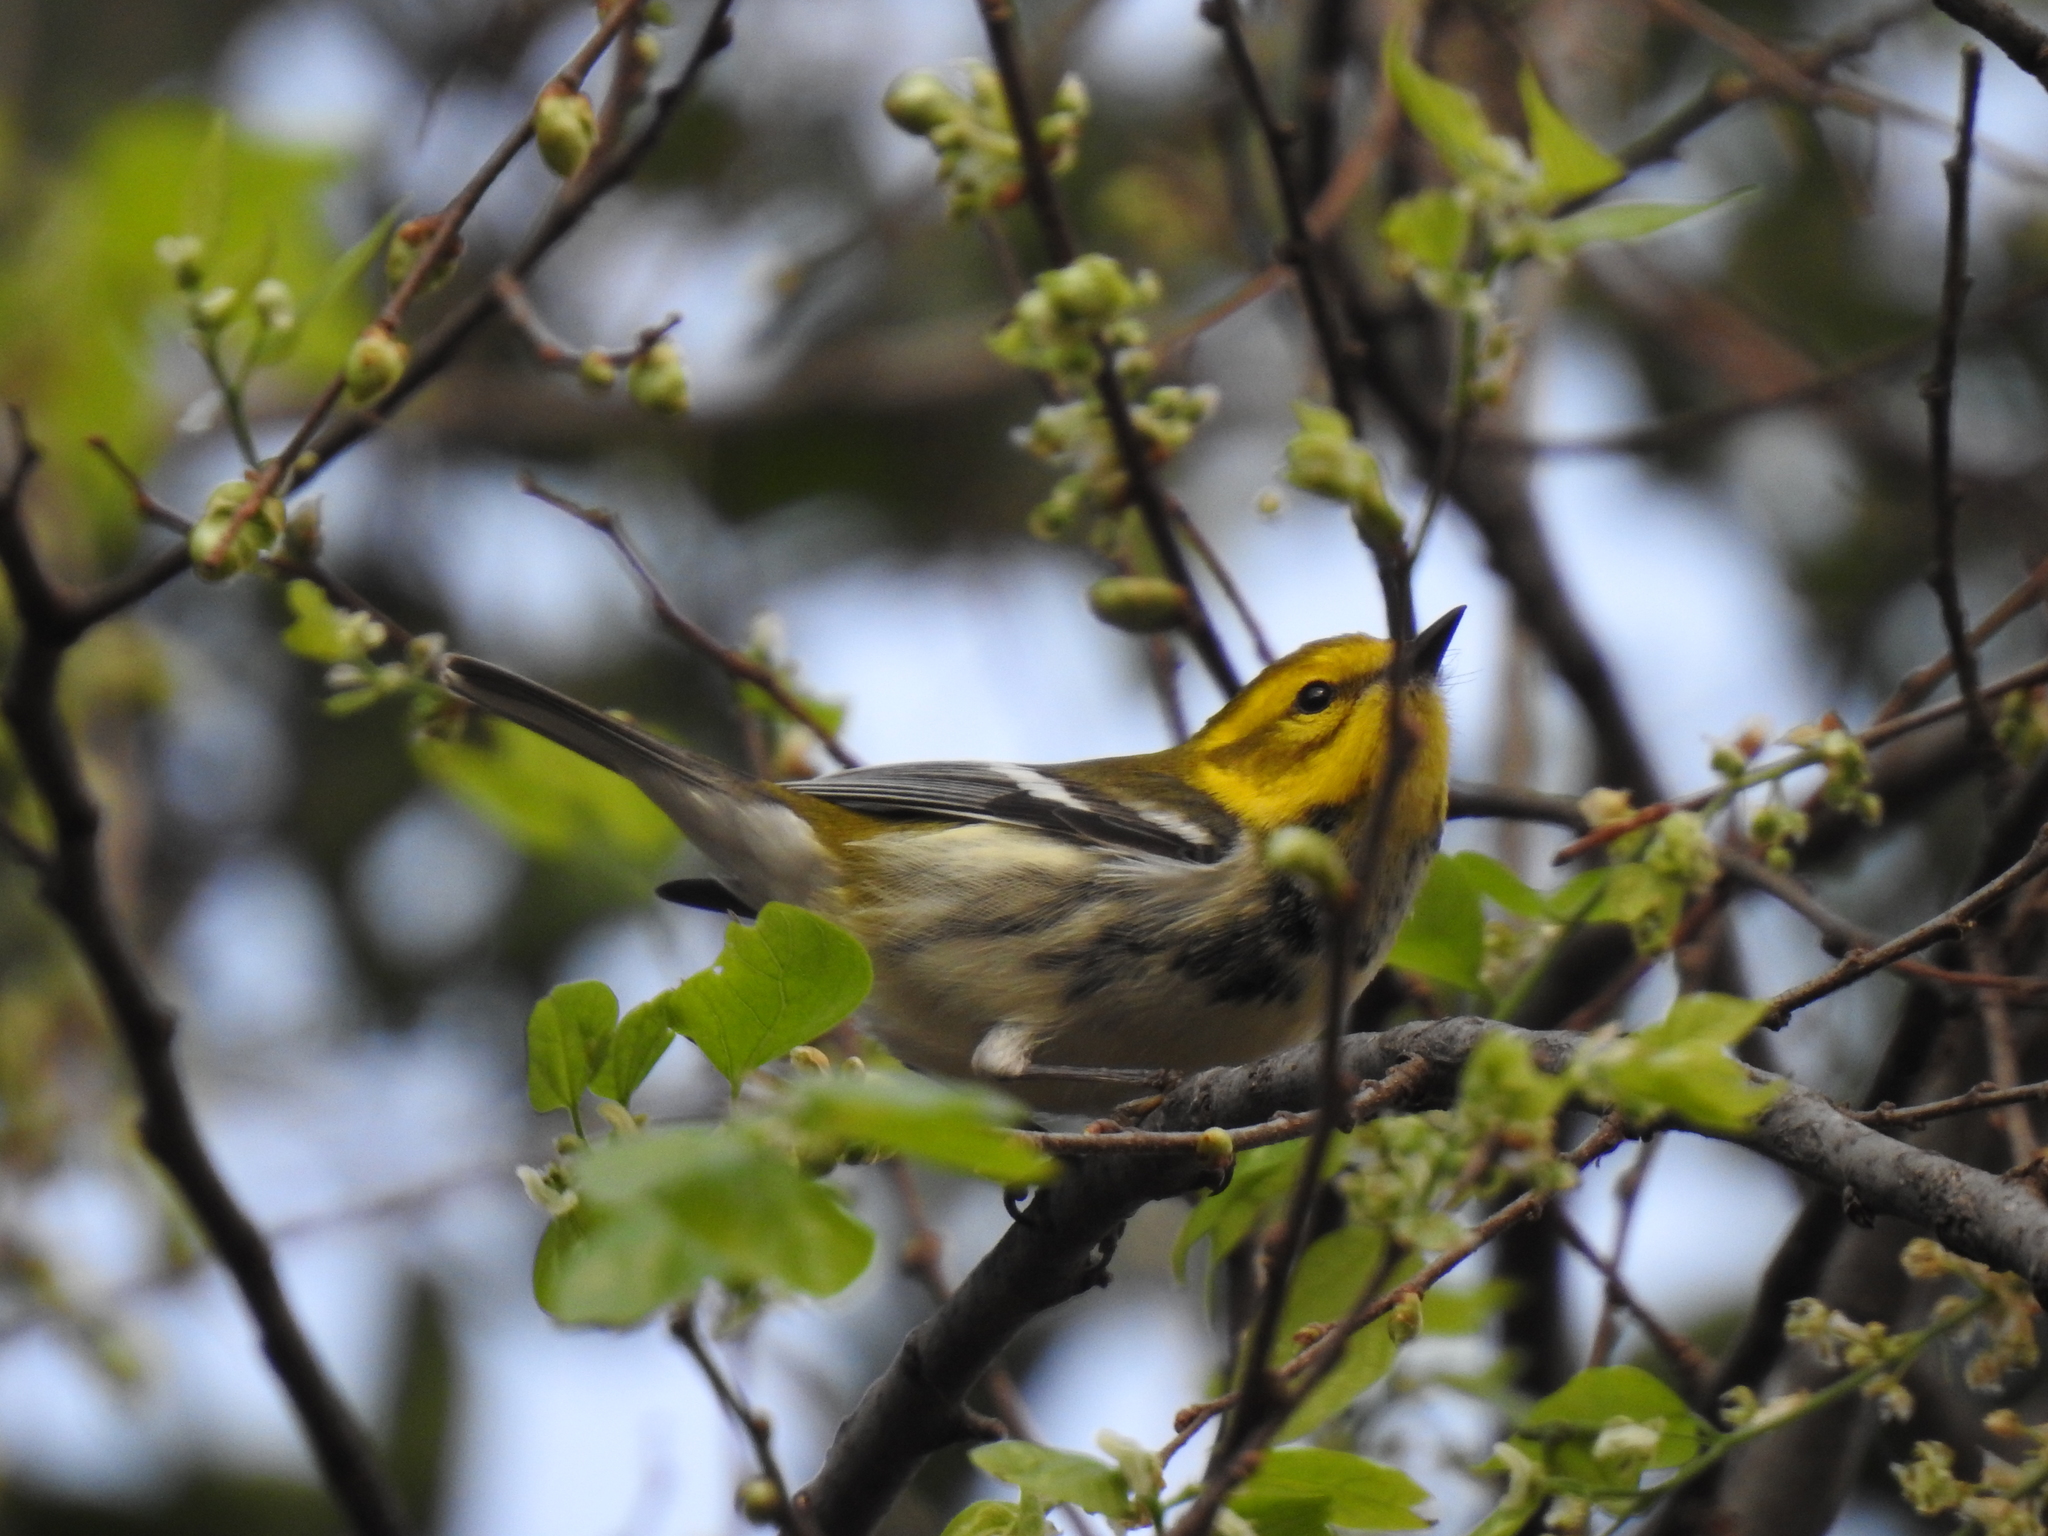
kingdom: Animalia
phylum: Chordata
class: Aves
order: Passeriformes
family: Parulidae
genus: Setophaga
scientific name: Setophaga virens
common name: Black-throated green warbler
